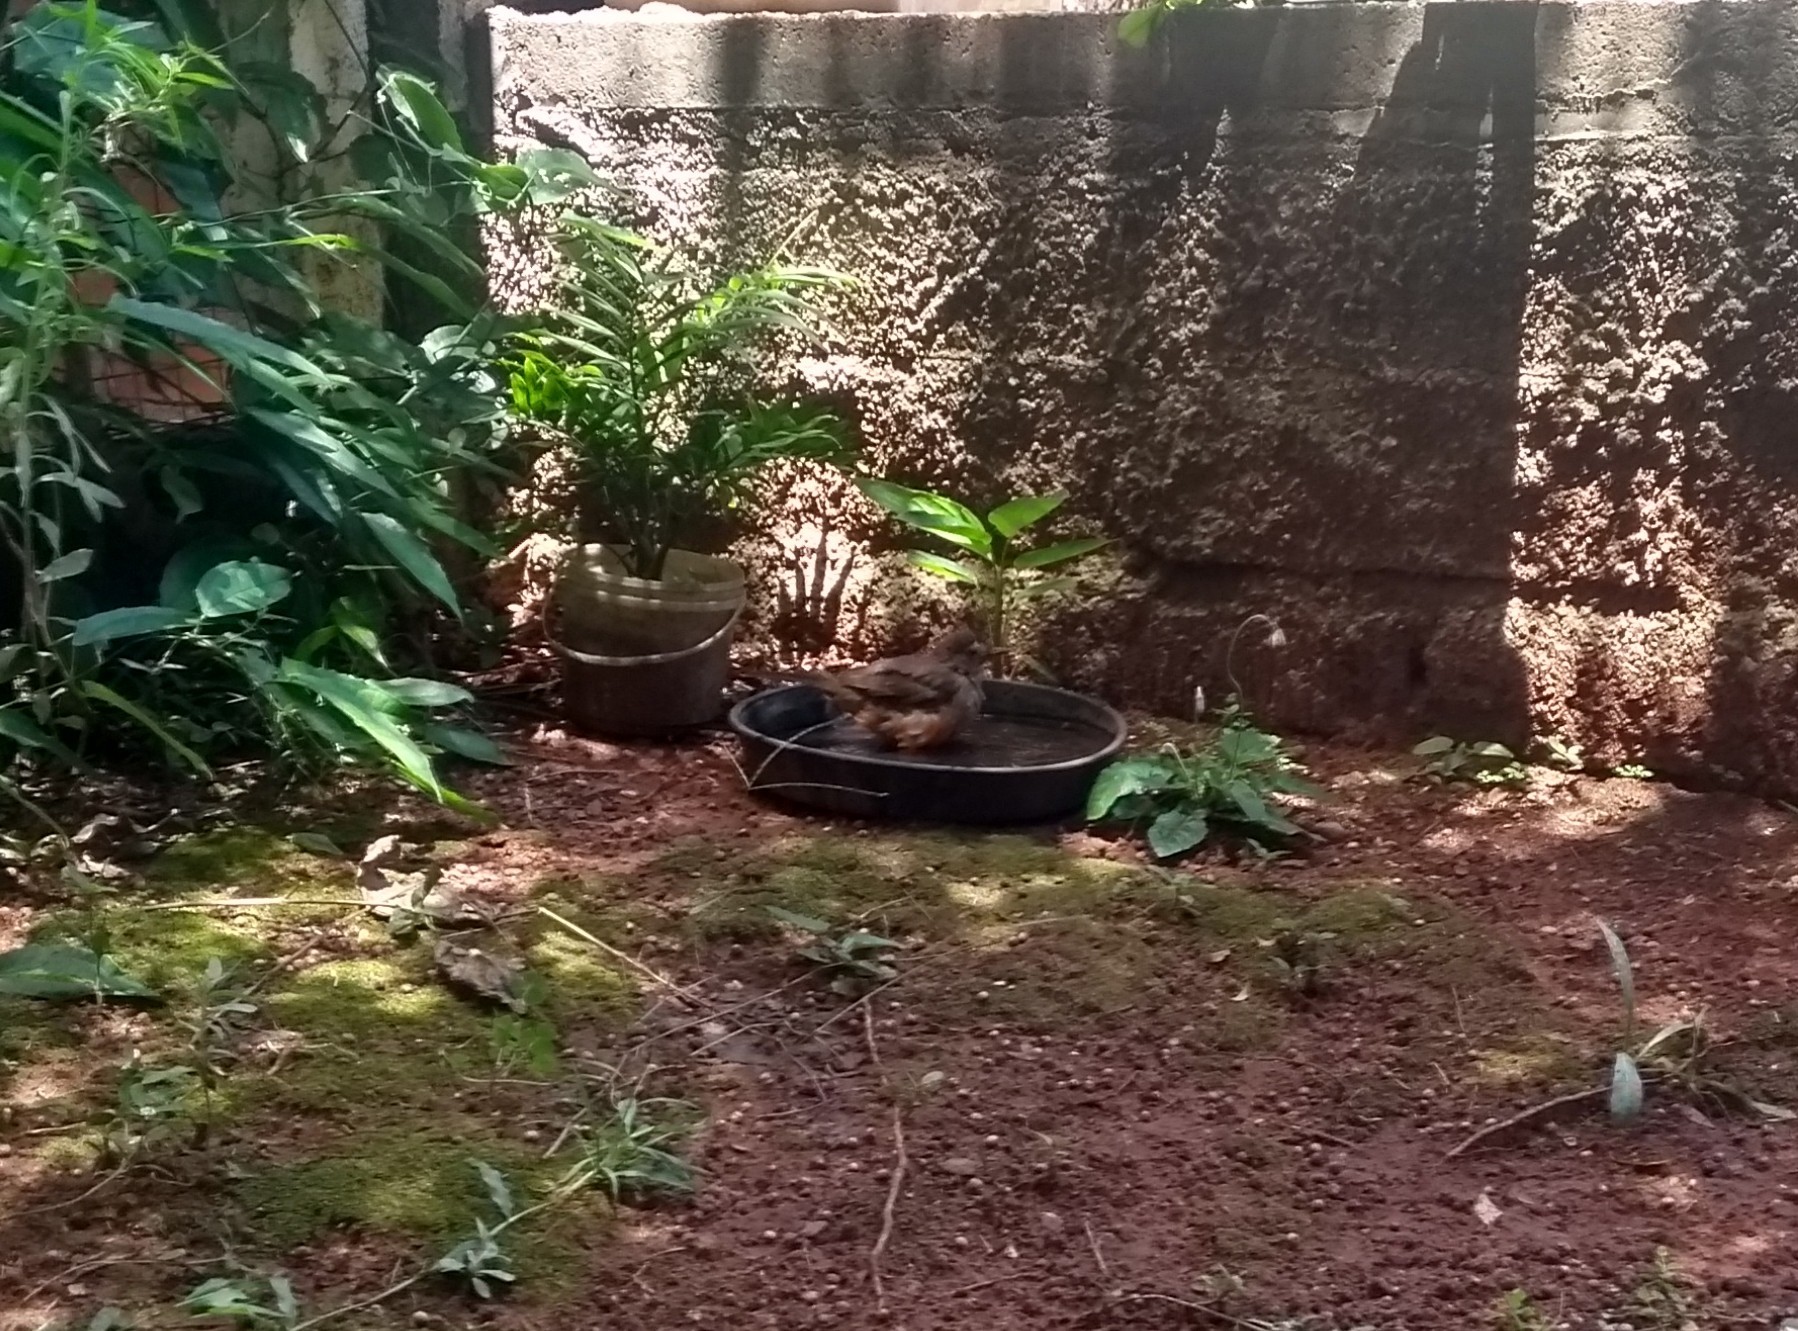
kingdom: Animalia
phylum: Chordata
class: Aves
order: Passeriformes
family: Turdidae
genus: Turdus
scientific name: Turdus rufiventris
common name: Rufous-bellied thrush
